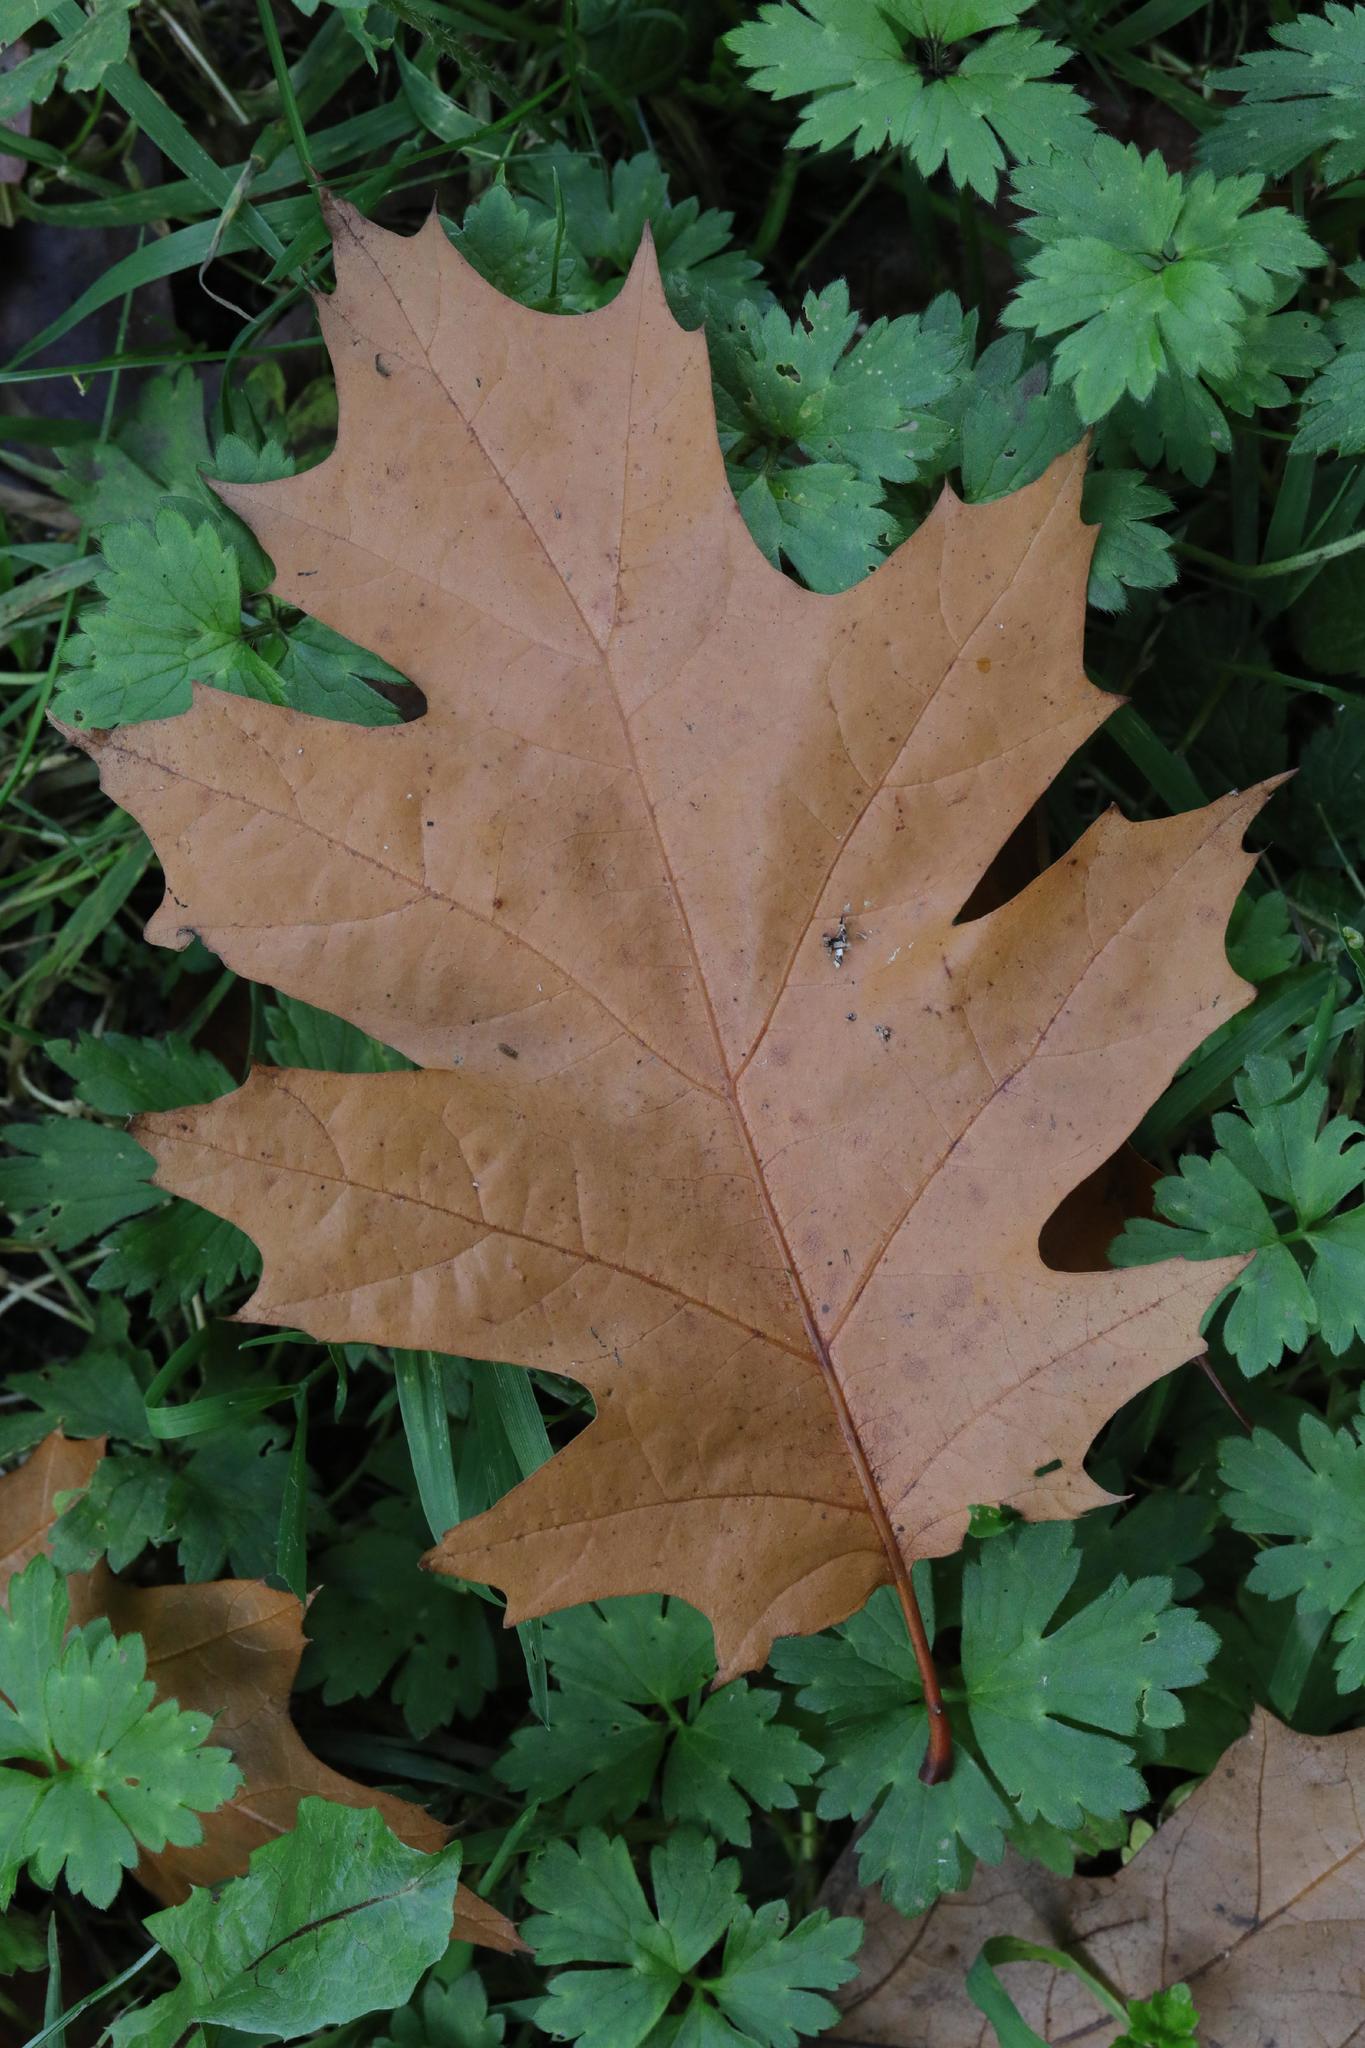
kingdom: Plantae
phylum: Tracheophyta
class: Magnoliopsida
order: Fagales
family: Fagaceae
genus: Quercus
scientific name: Quercus rubra
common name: Red oak
